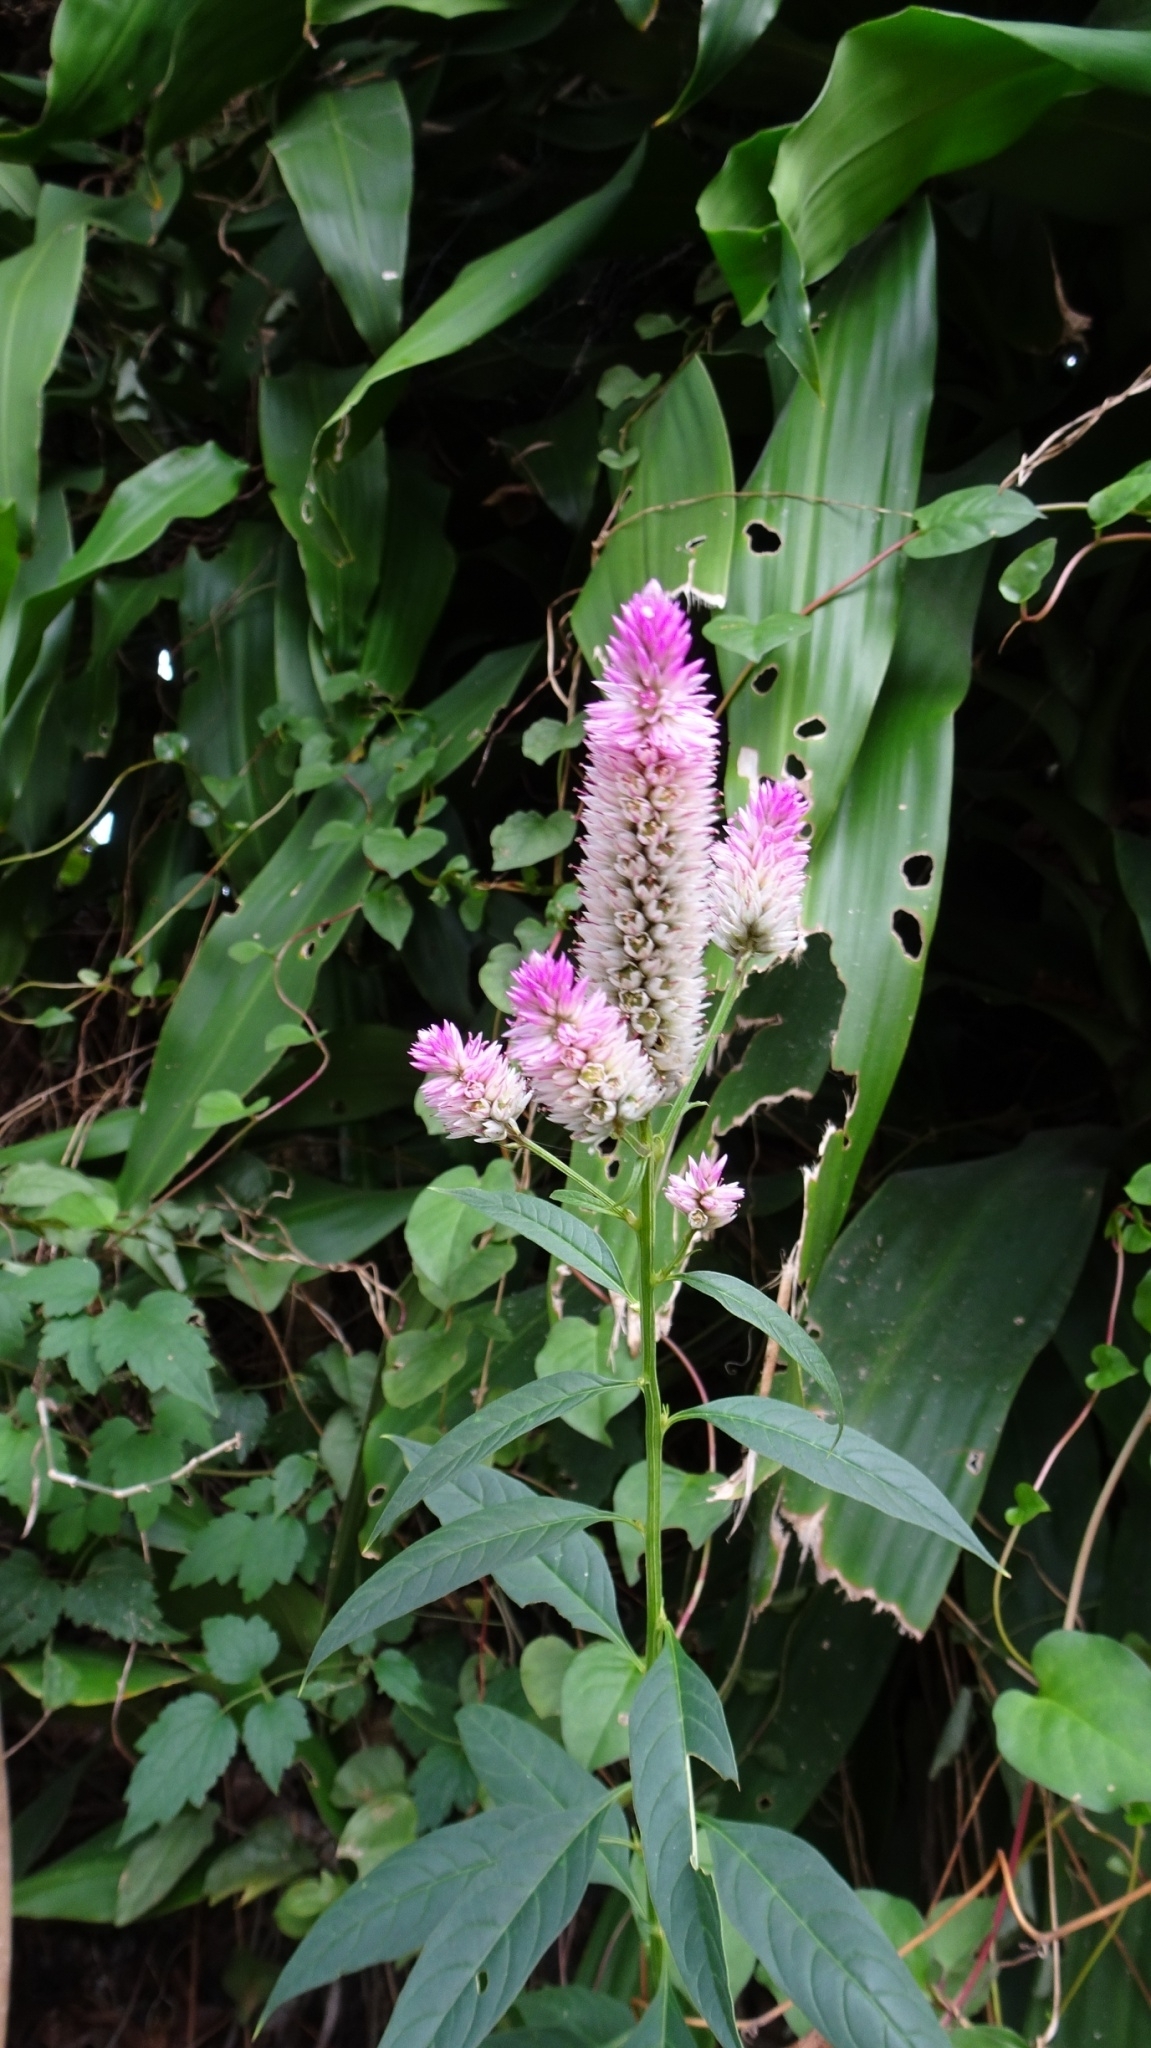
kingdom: Plantae
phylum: Tracheophyta
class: Magnoliopsida
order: Caryophyllales
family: Amaranthaceae
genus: Celosia
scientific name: Celosia argentea
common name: Feather cockscomb
